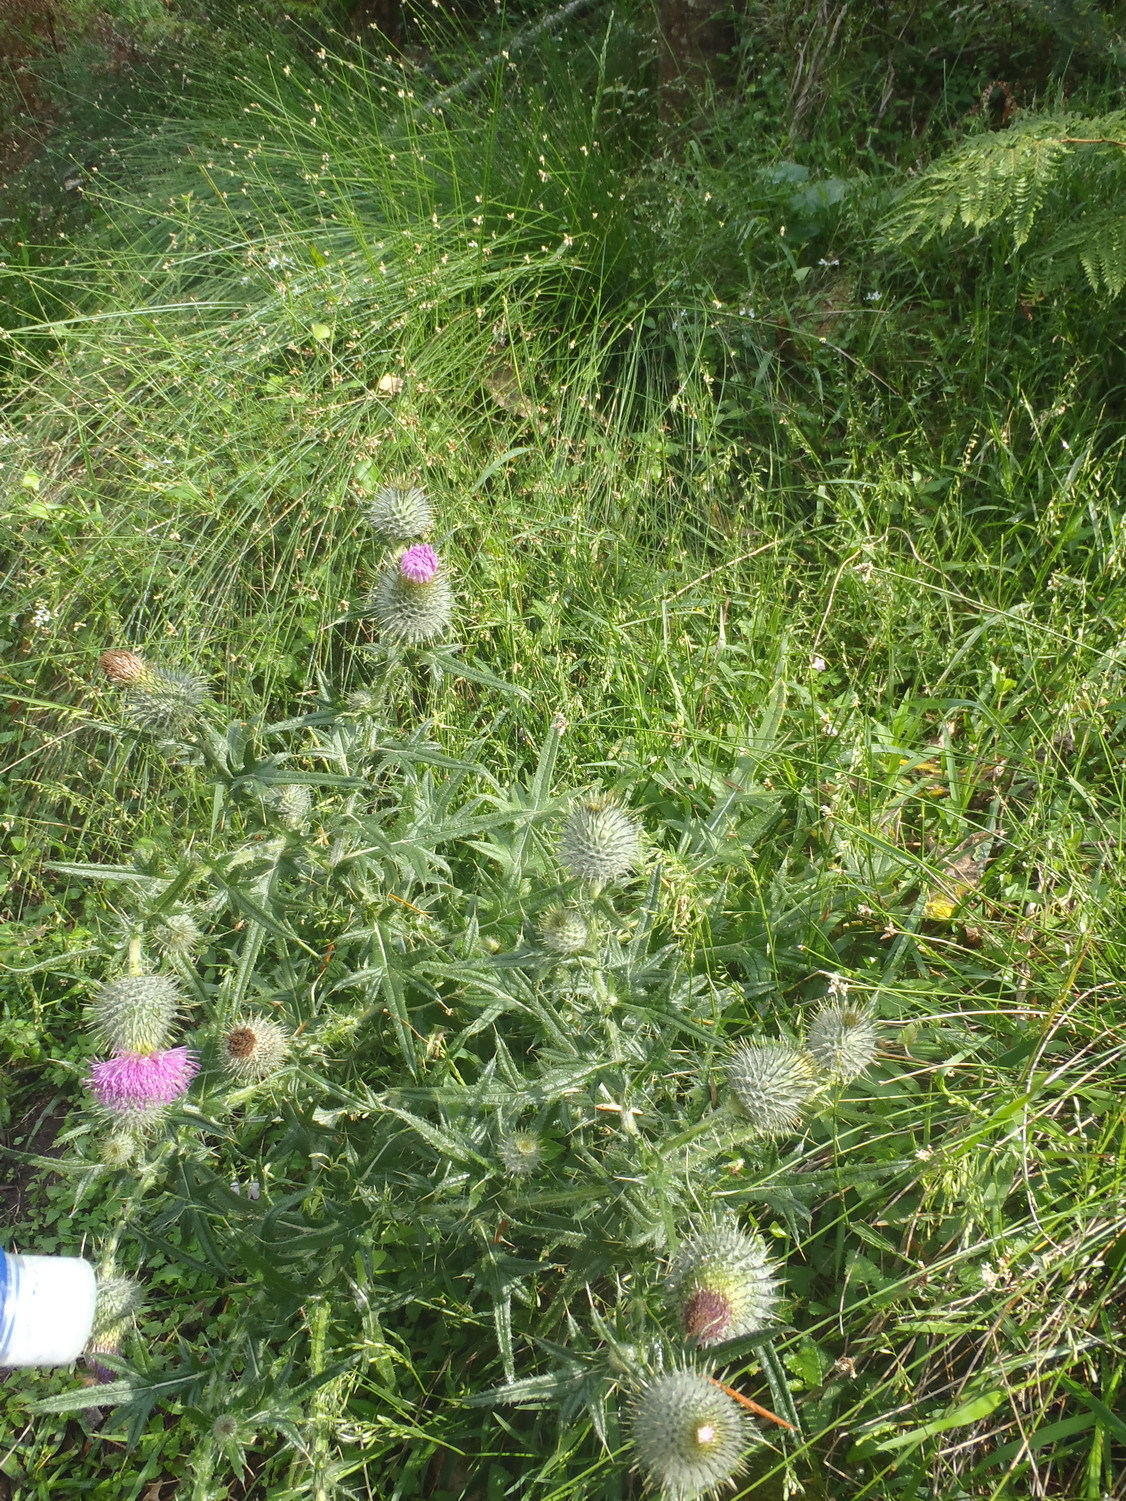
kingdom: Plantae
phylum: Tracheophyta
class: Magnoliopsida
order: Asterales
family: Asteraceae
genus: Cirsium
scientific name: Cirsium vulgare
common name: Bull thistle
